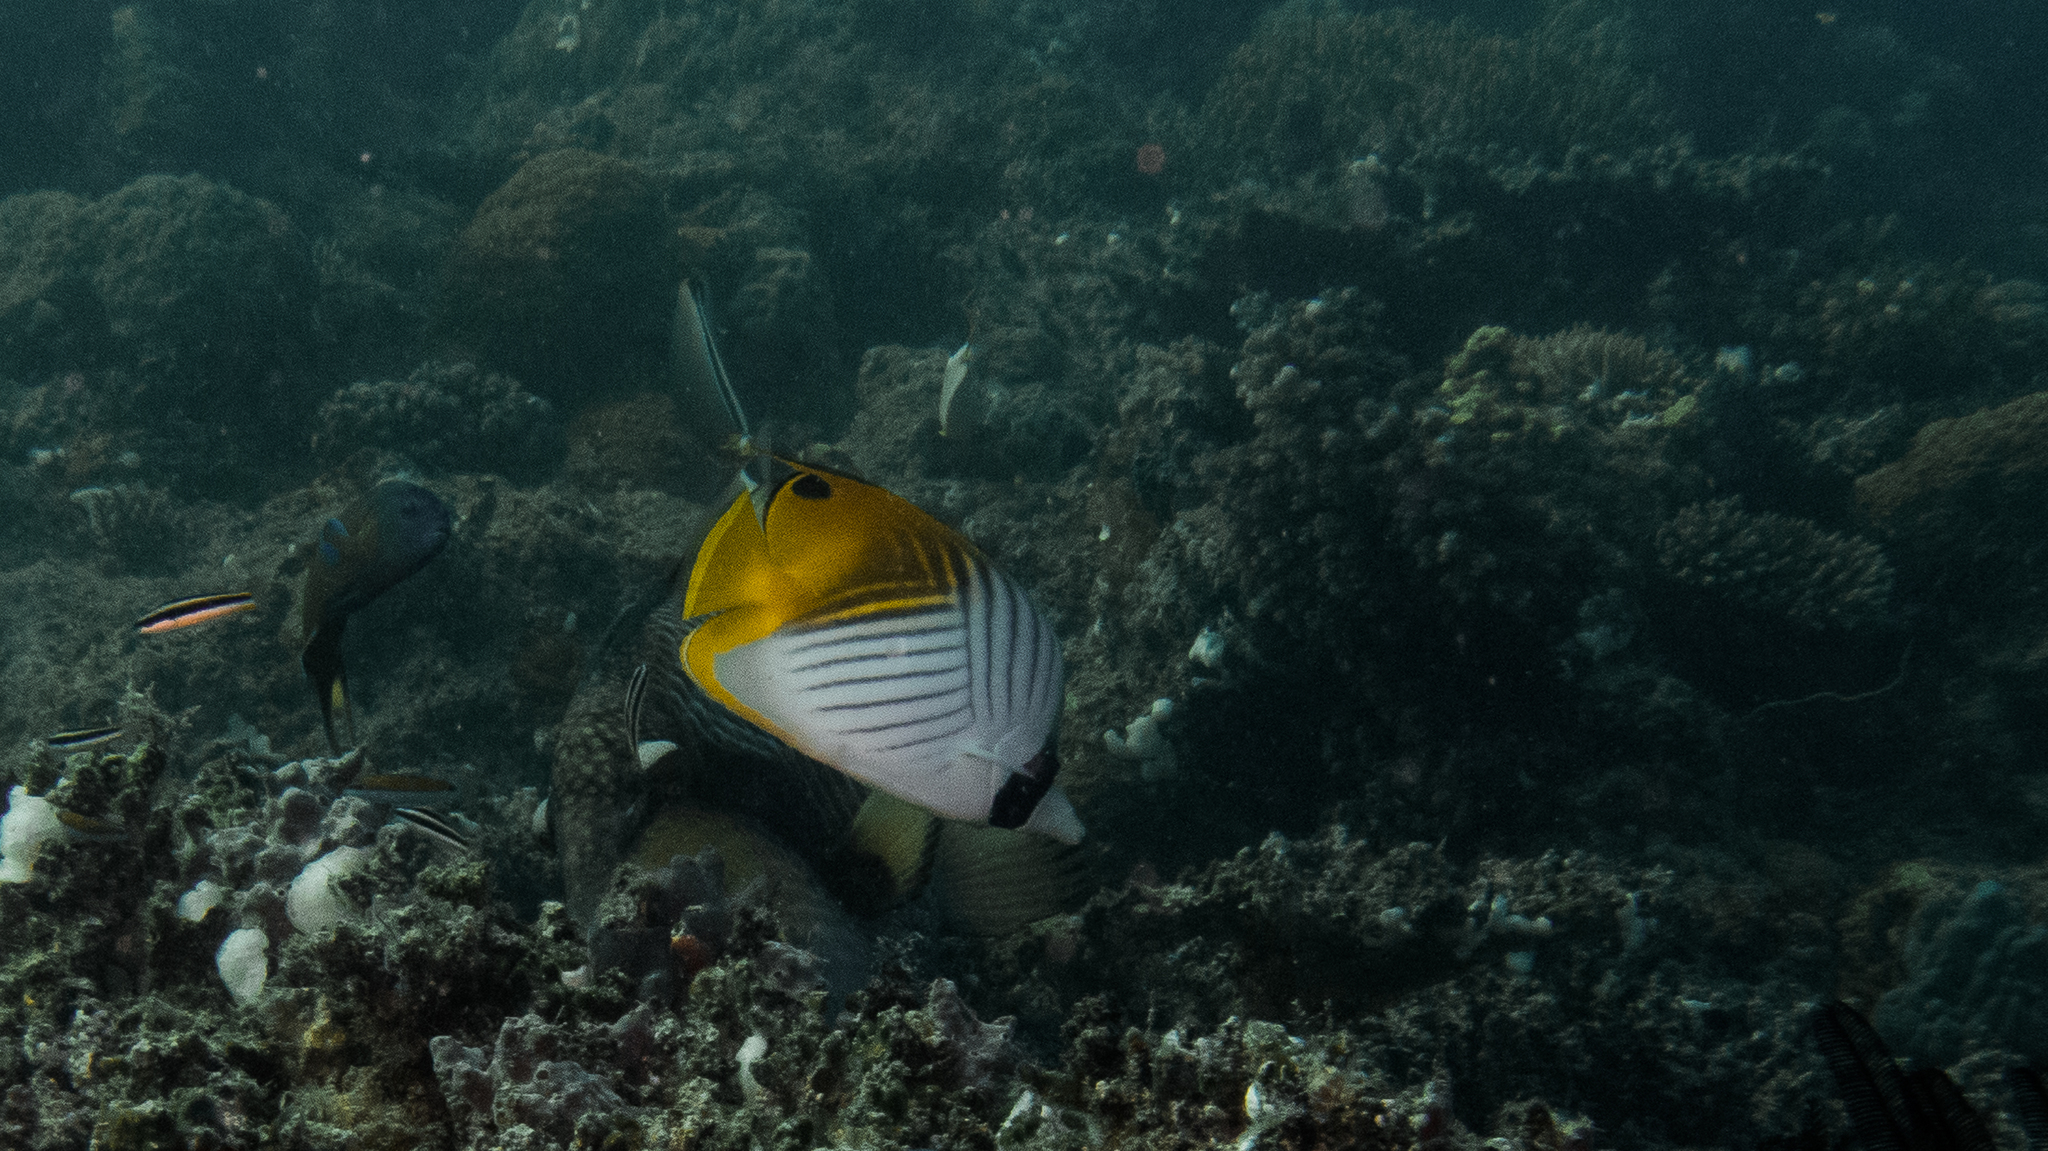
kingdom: Animalia
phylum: Chordata
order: Perciformes
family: Chaetodontidae
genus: Chaetodon
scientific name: Chaetodon auriga
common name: Threadfin butterflyfish
